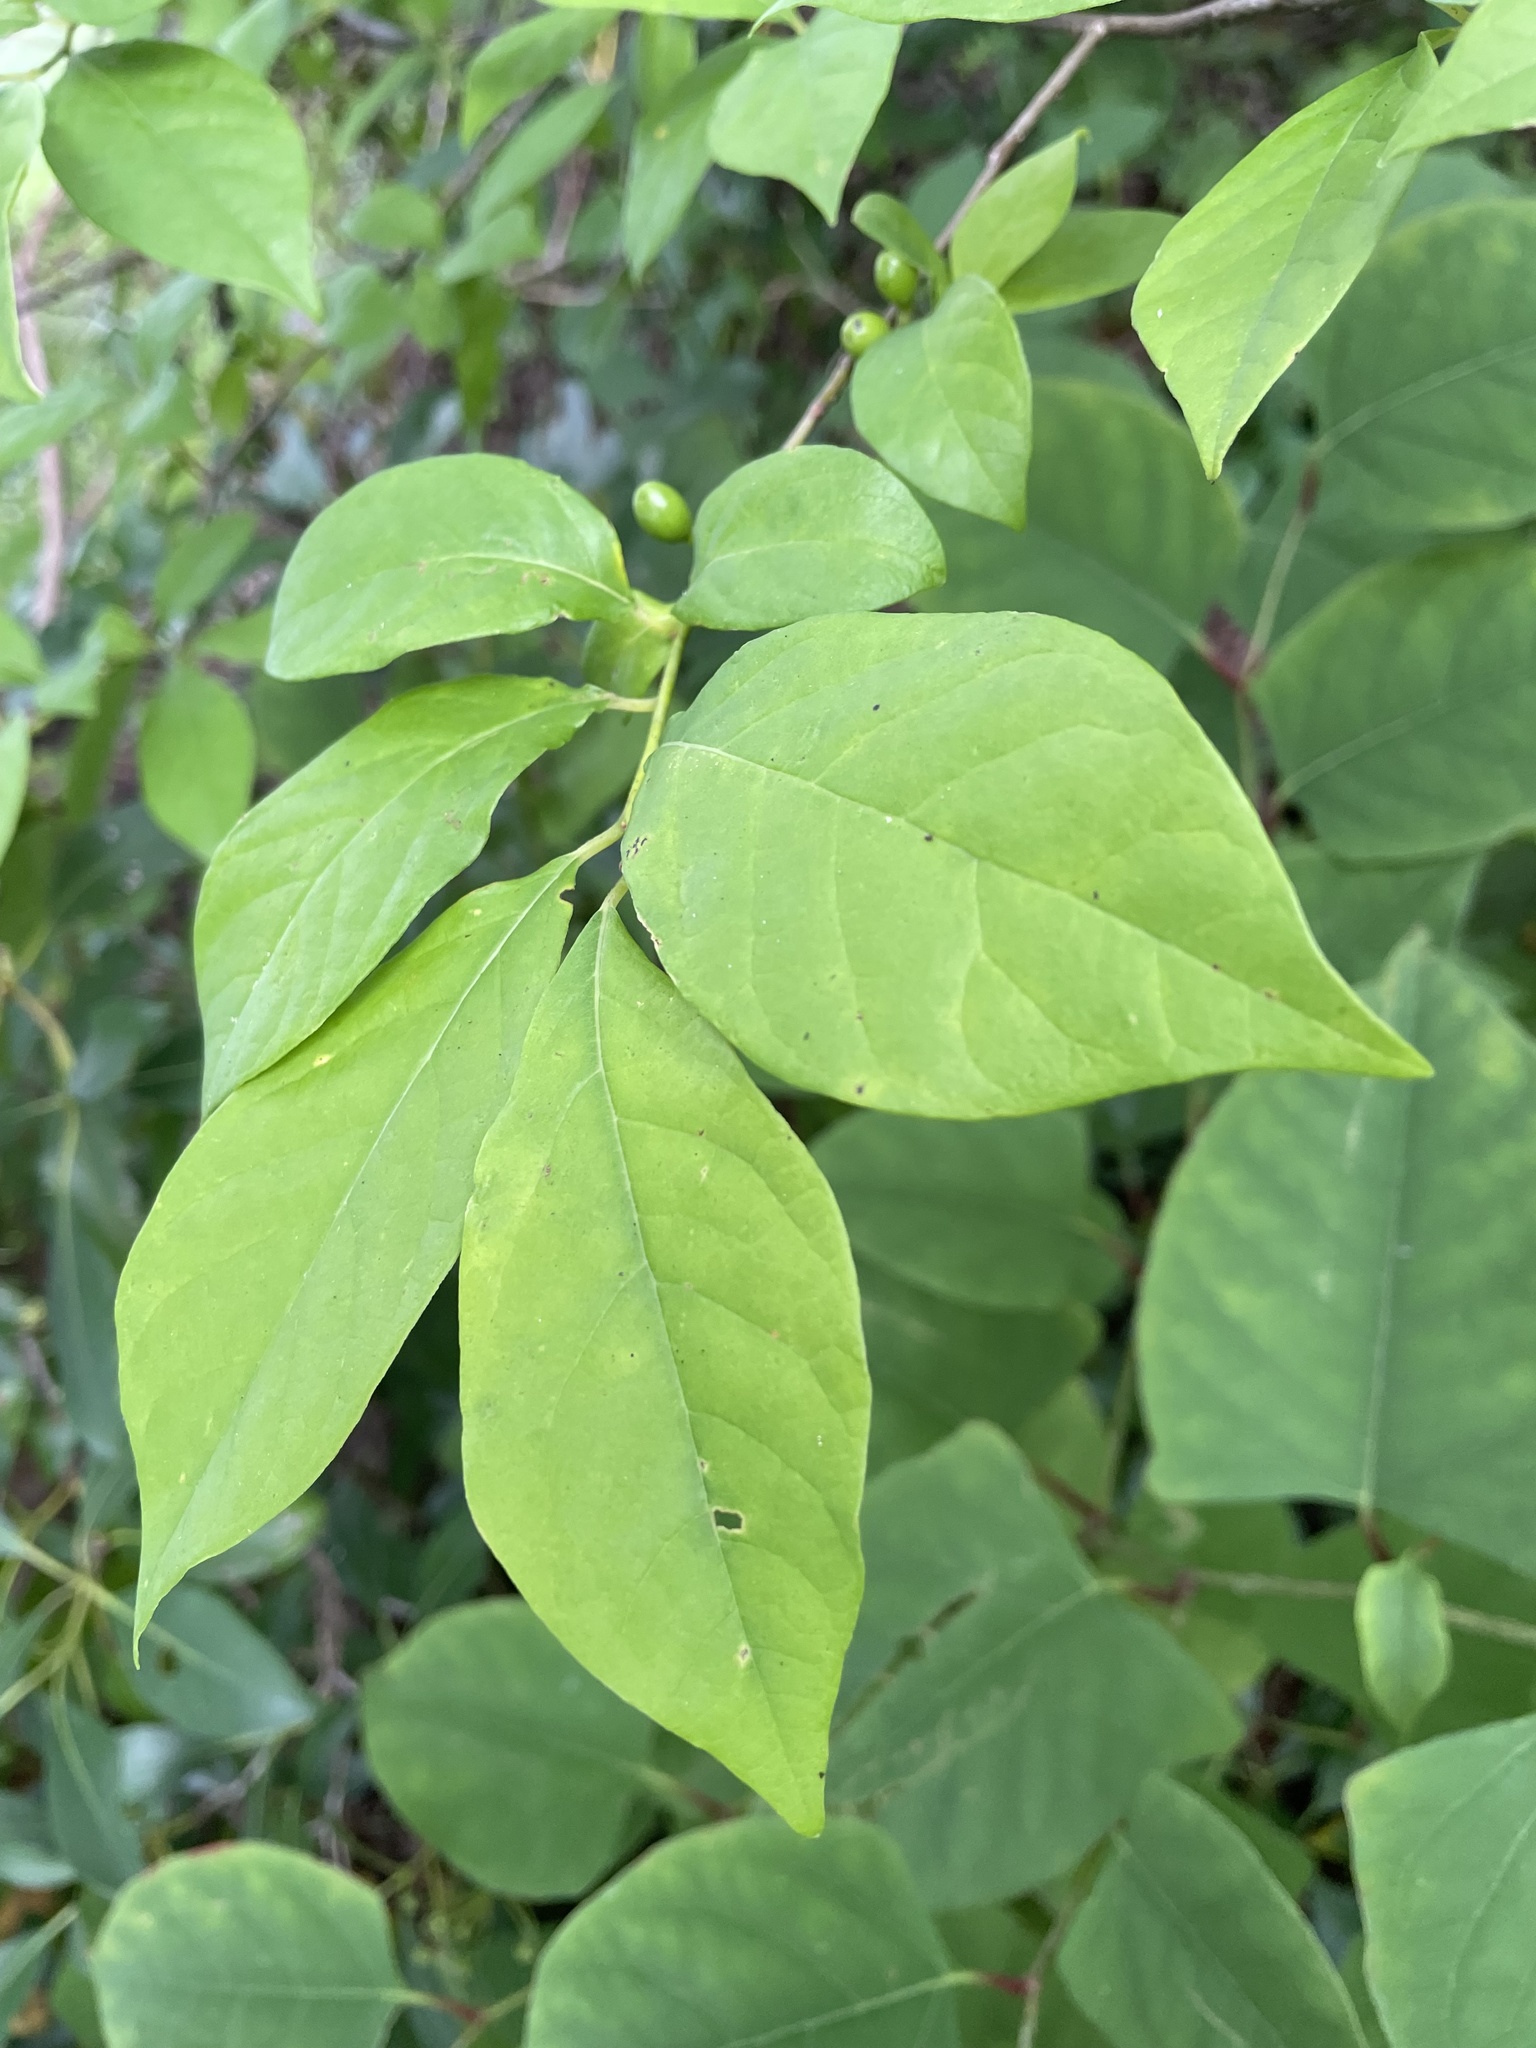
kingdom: Plantae
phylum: Tracheophyta
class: Magnoliopsida
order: Laurales
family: Lauraceae
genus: Lindera
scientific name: Lindera benzoin
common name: Spicebush
